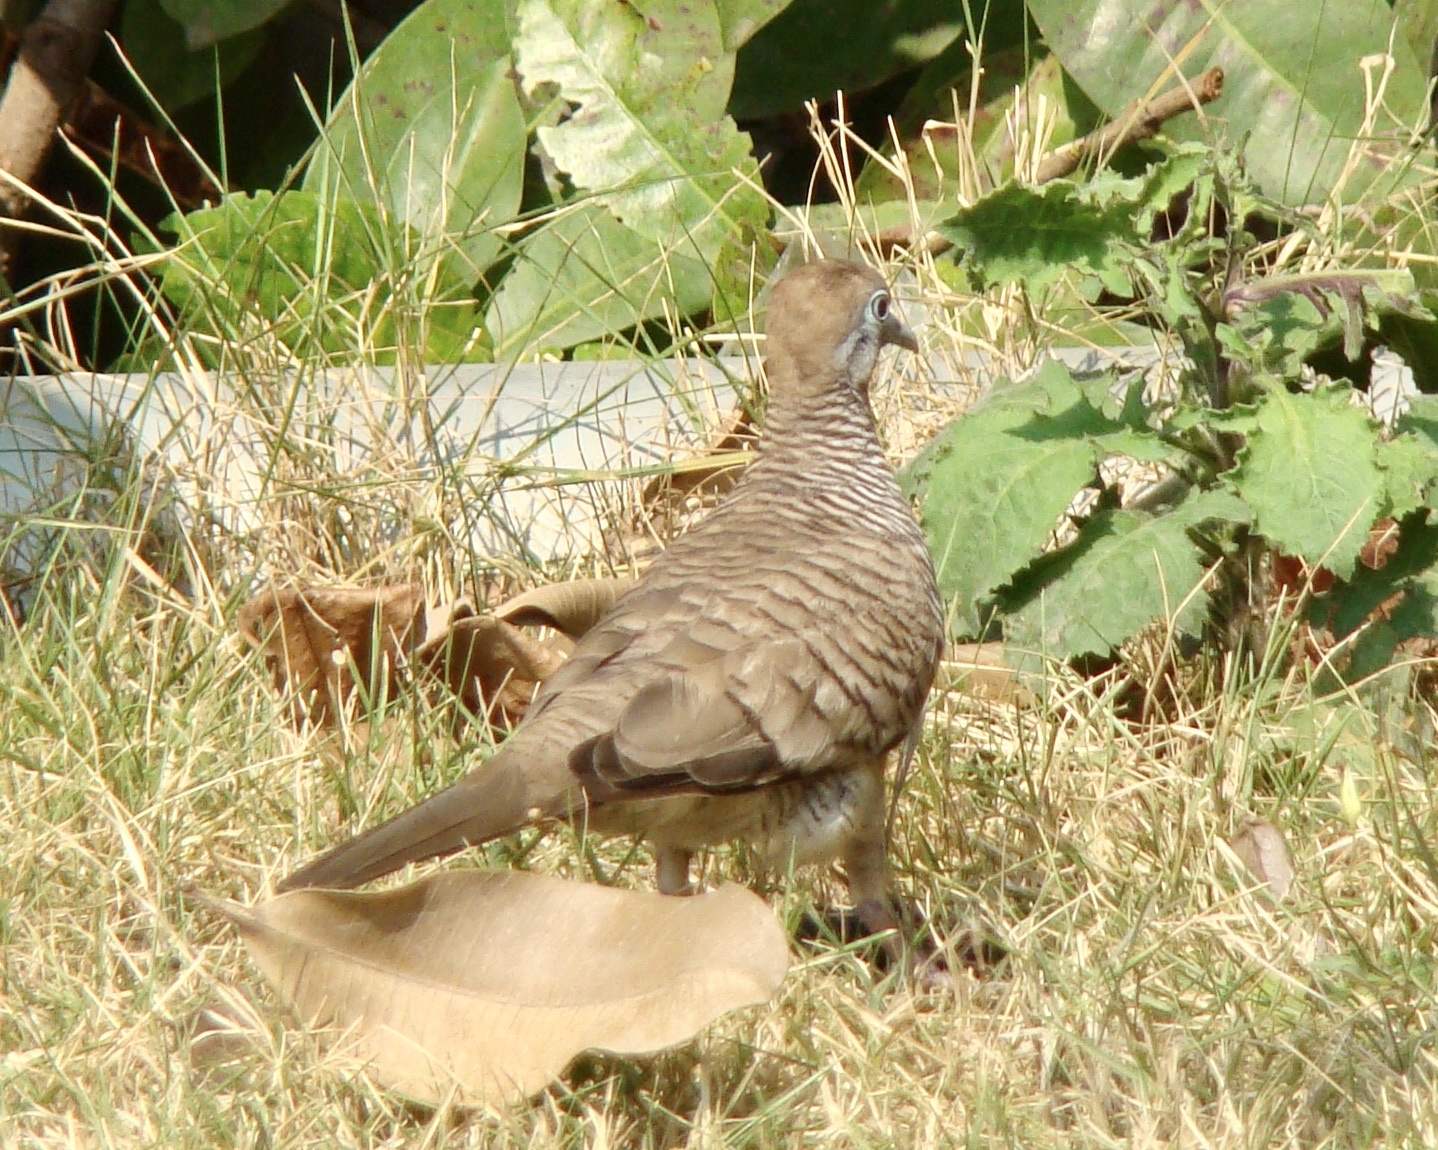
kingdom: Animalia
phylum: Chordata
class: Aves
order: Columbiformes
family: Columbidae
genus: Geopelia
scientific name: Geopelia striata
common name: Zebra dove
